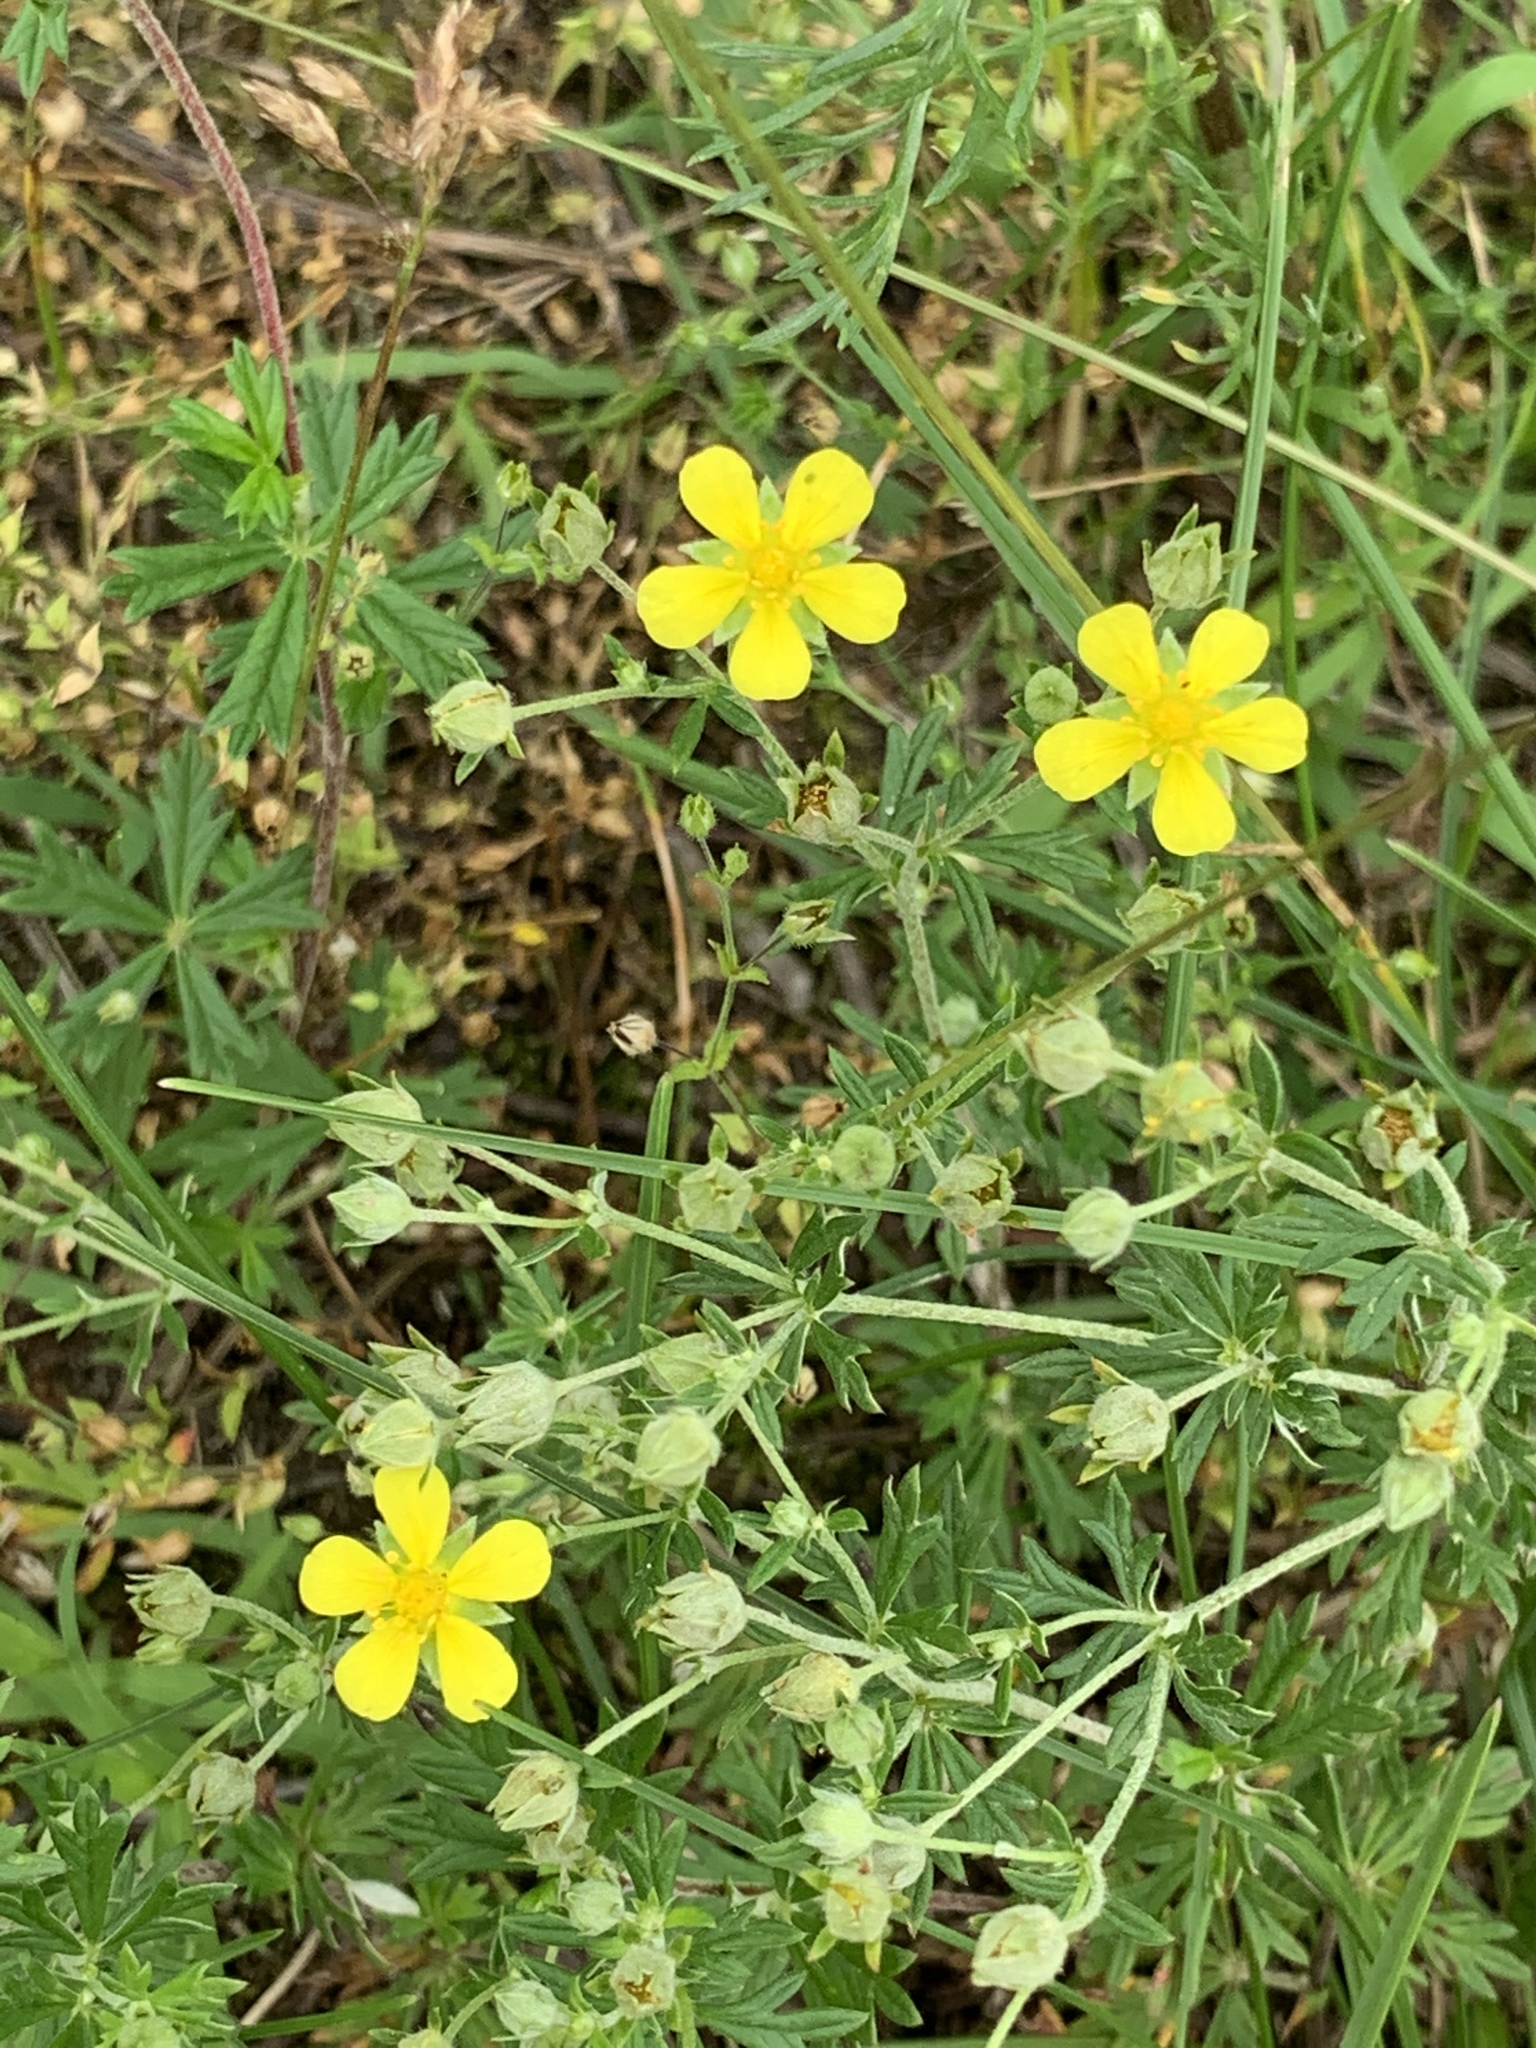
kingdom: Plantae
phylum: Tracheophyta
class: Magnoliopsida
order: Rosales
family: Rosaceae
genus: Potentilla
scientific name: Potentilla argentea
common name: Hoary cinquefoil
